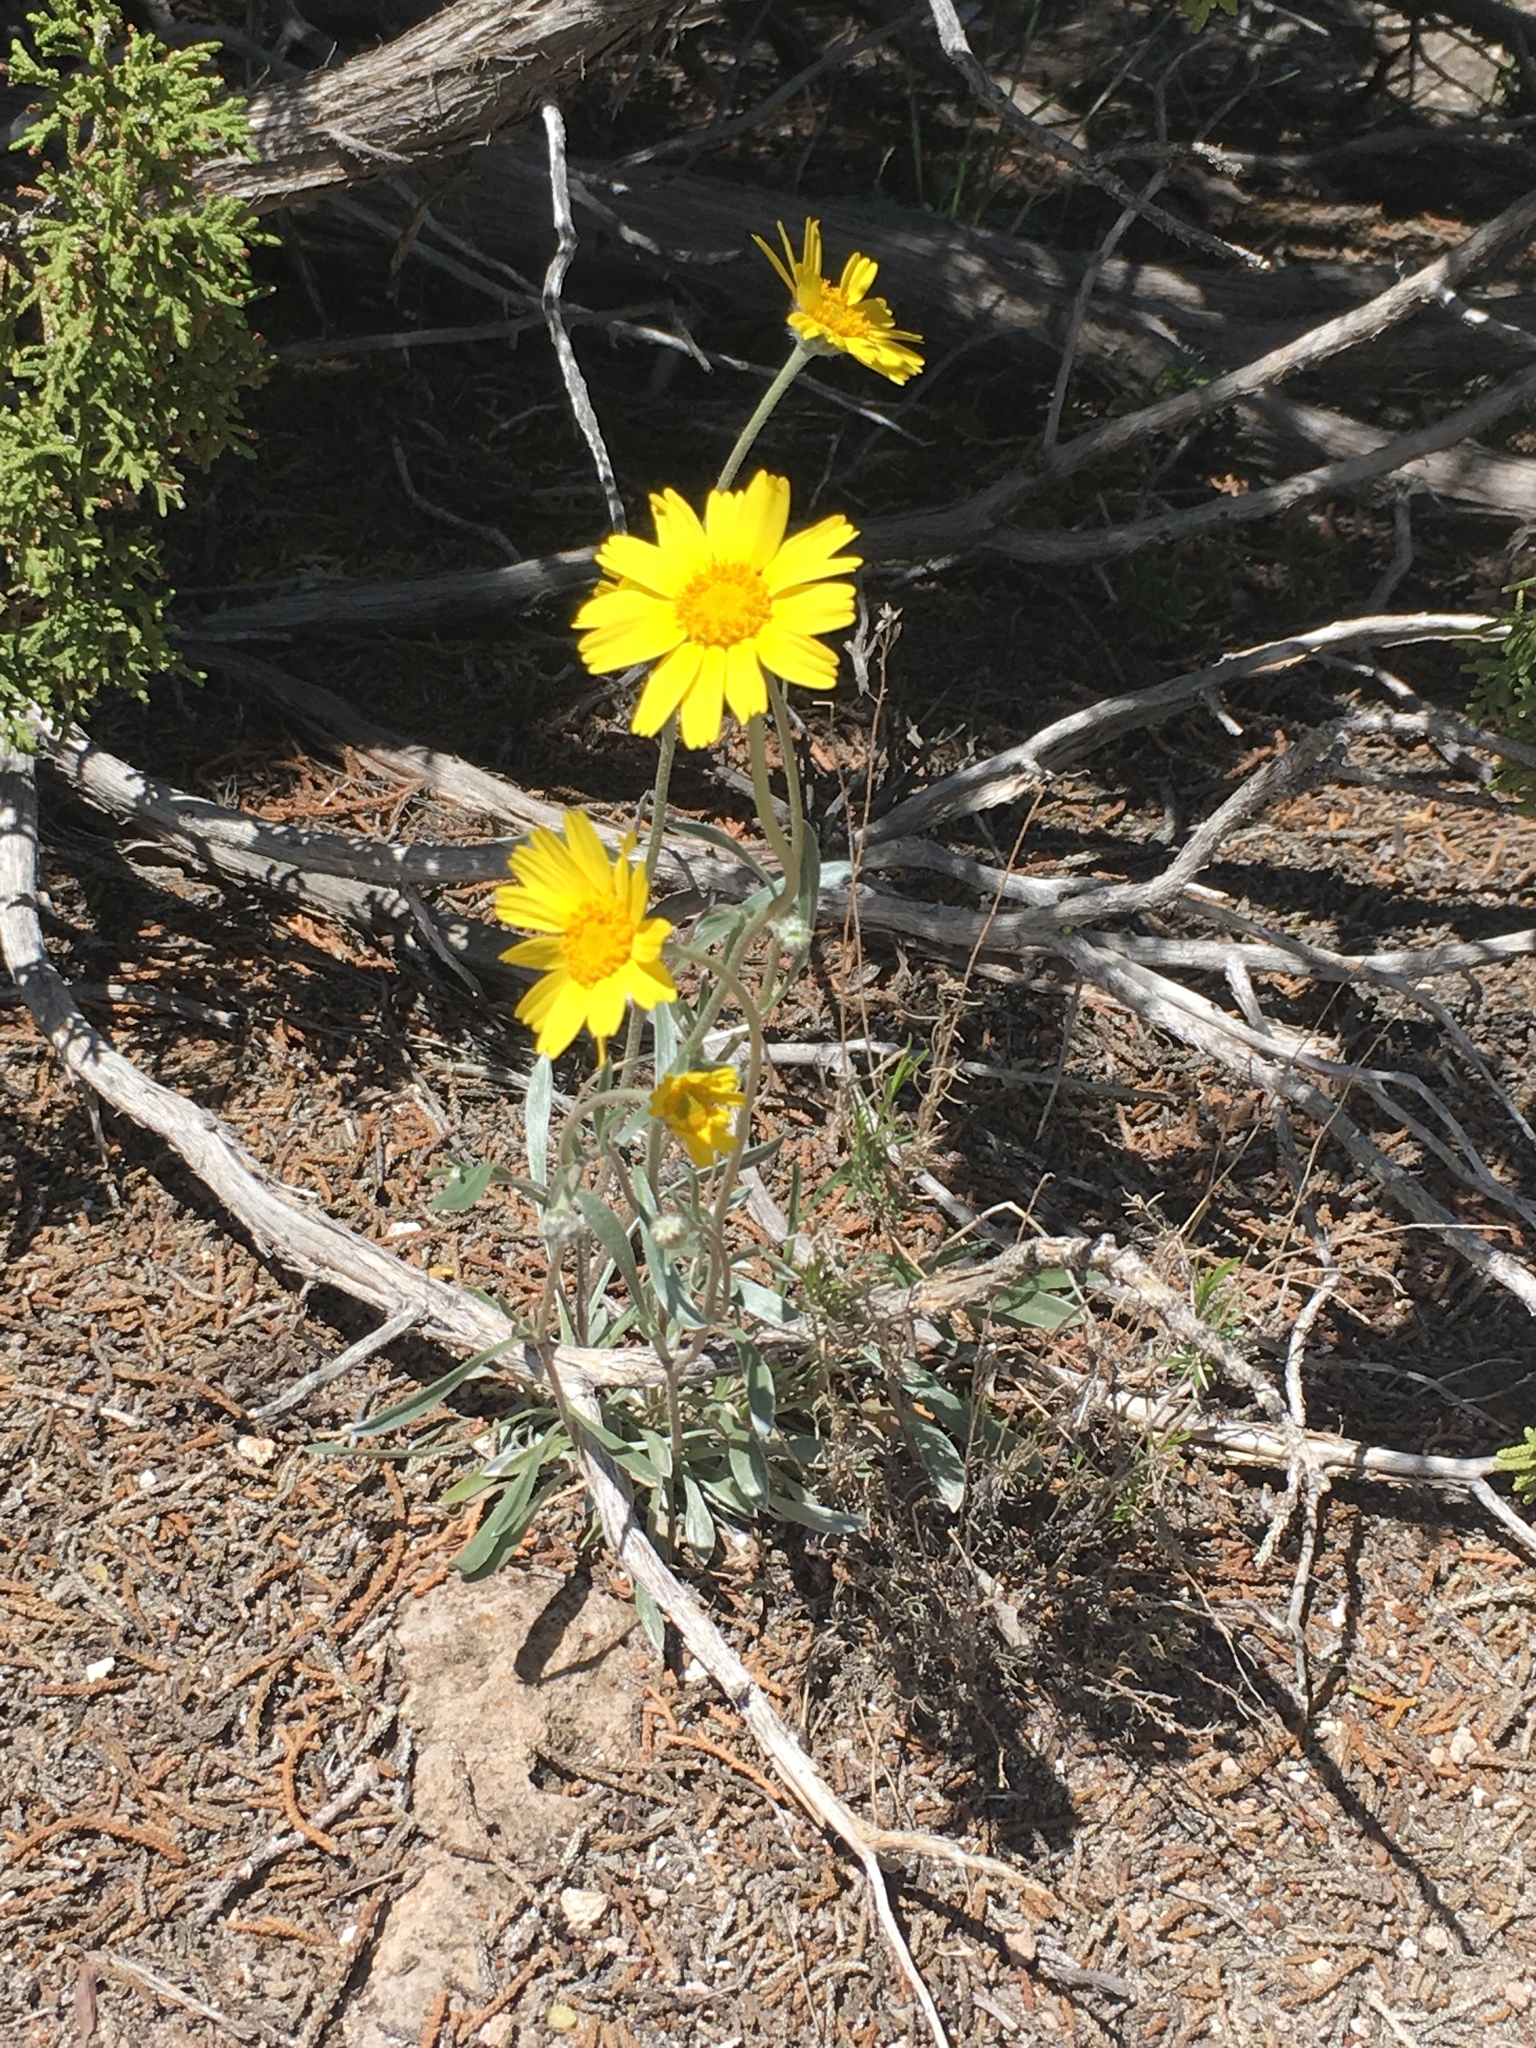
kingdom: Plantae
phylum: Tracheophyta
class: Magnoliopsida
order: Asterales
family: Asteraceae
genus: Tetraneuris
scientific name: Tetraneuris argentea
